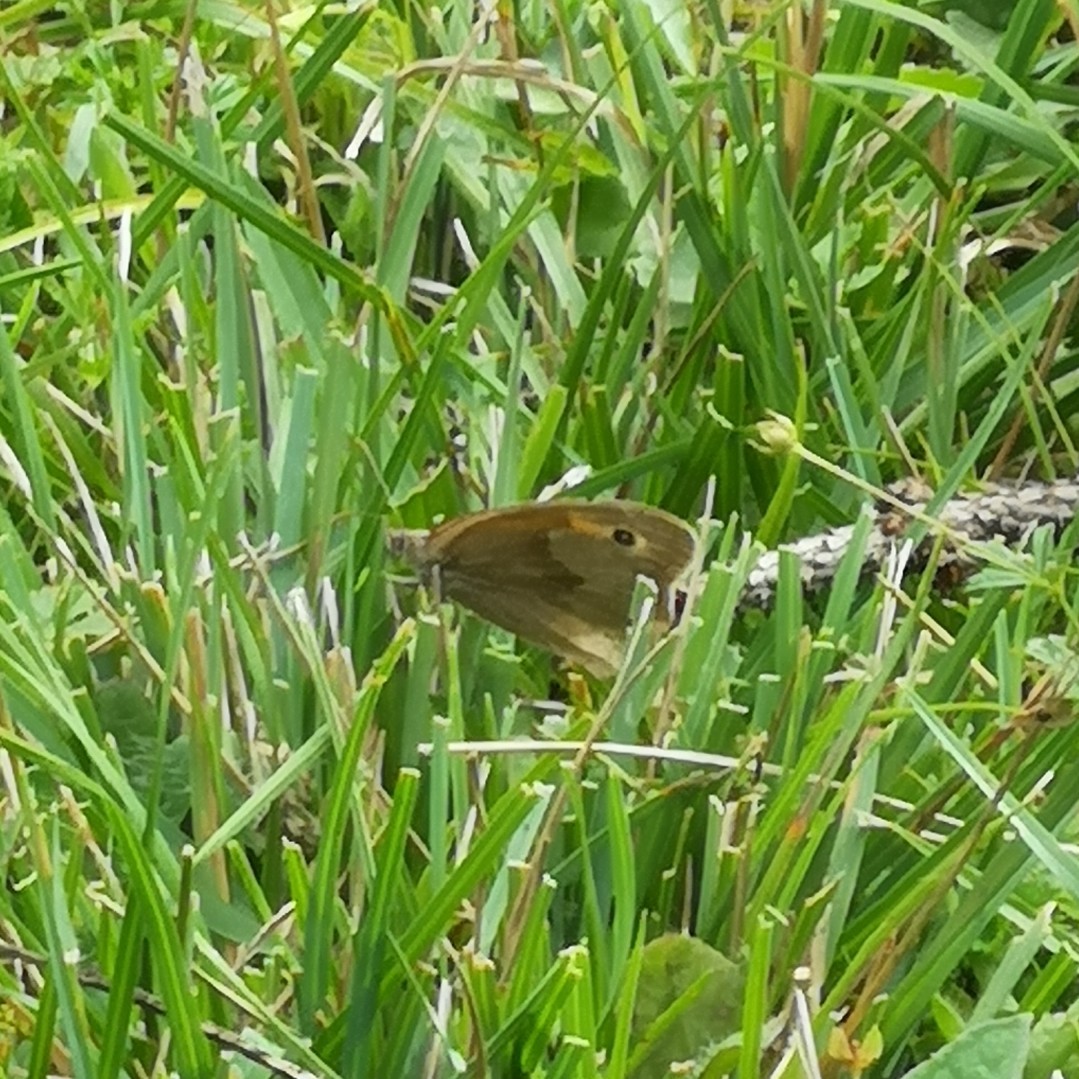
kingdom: Animalia
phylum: Arthropoda
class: Insecta
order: Lepidoptera
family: Nymphalidae
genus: Maniola
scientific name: Maniola jurtina
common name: Meadow brown
